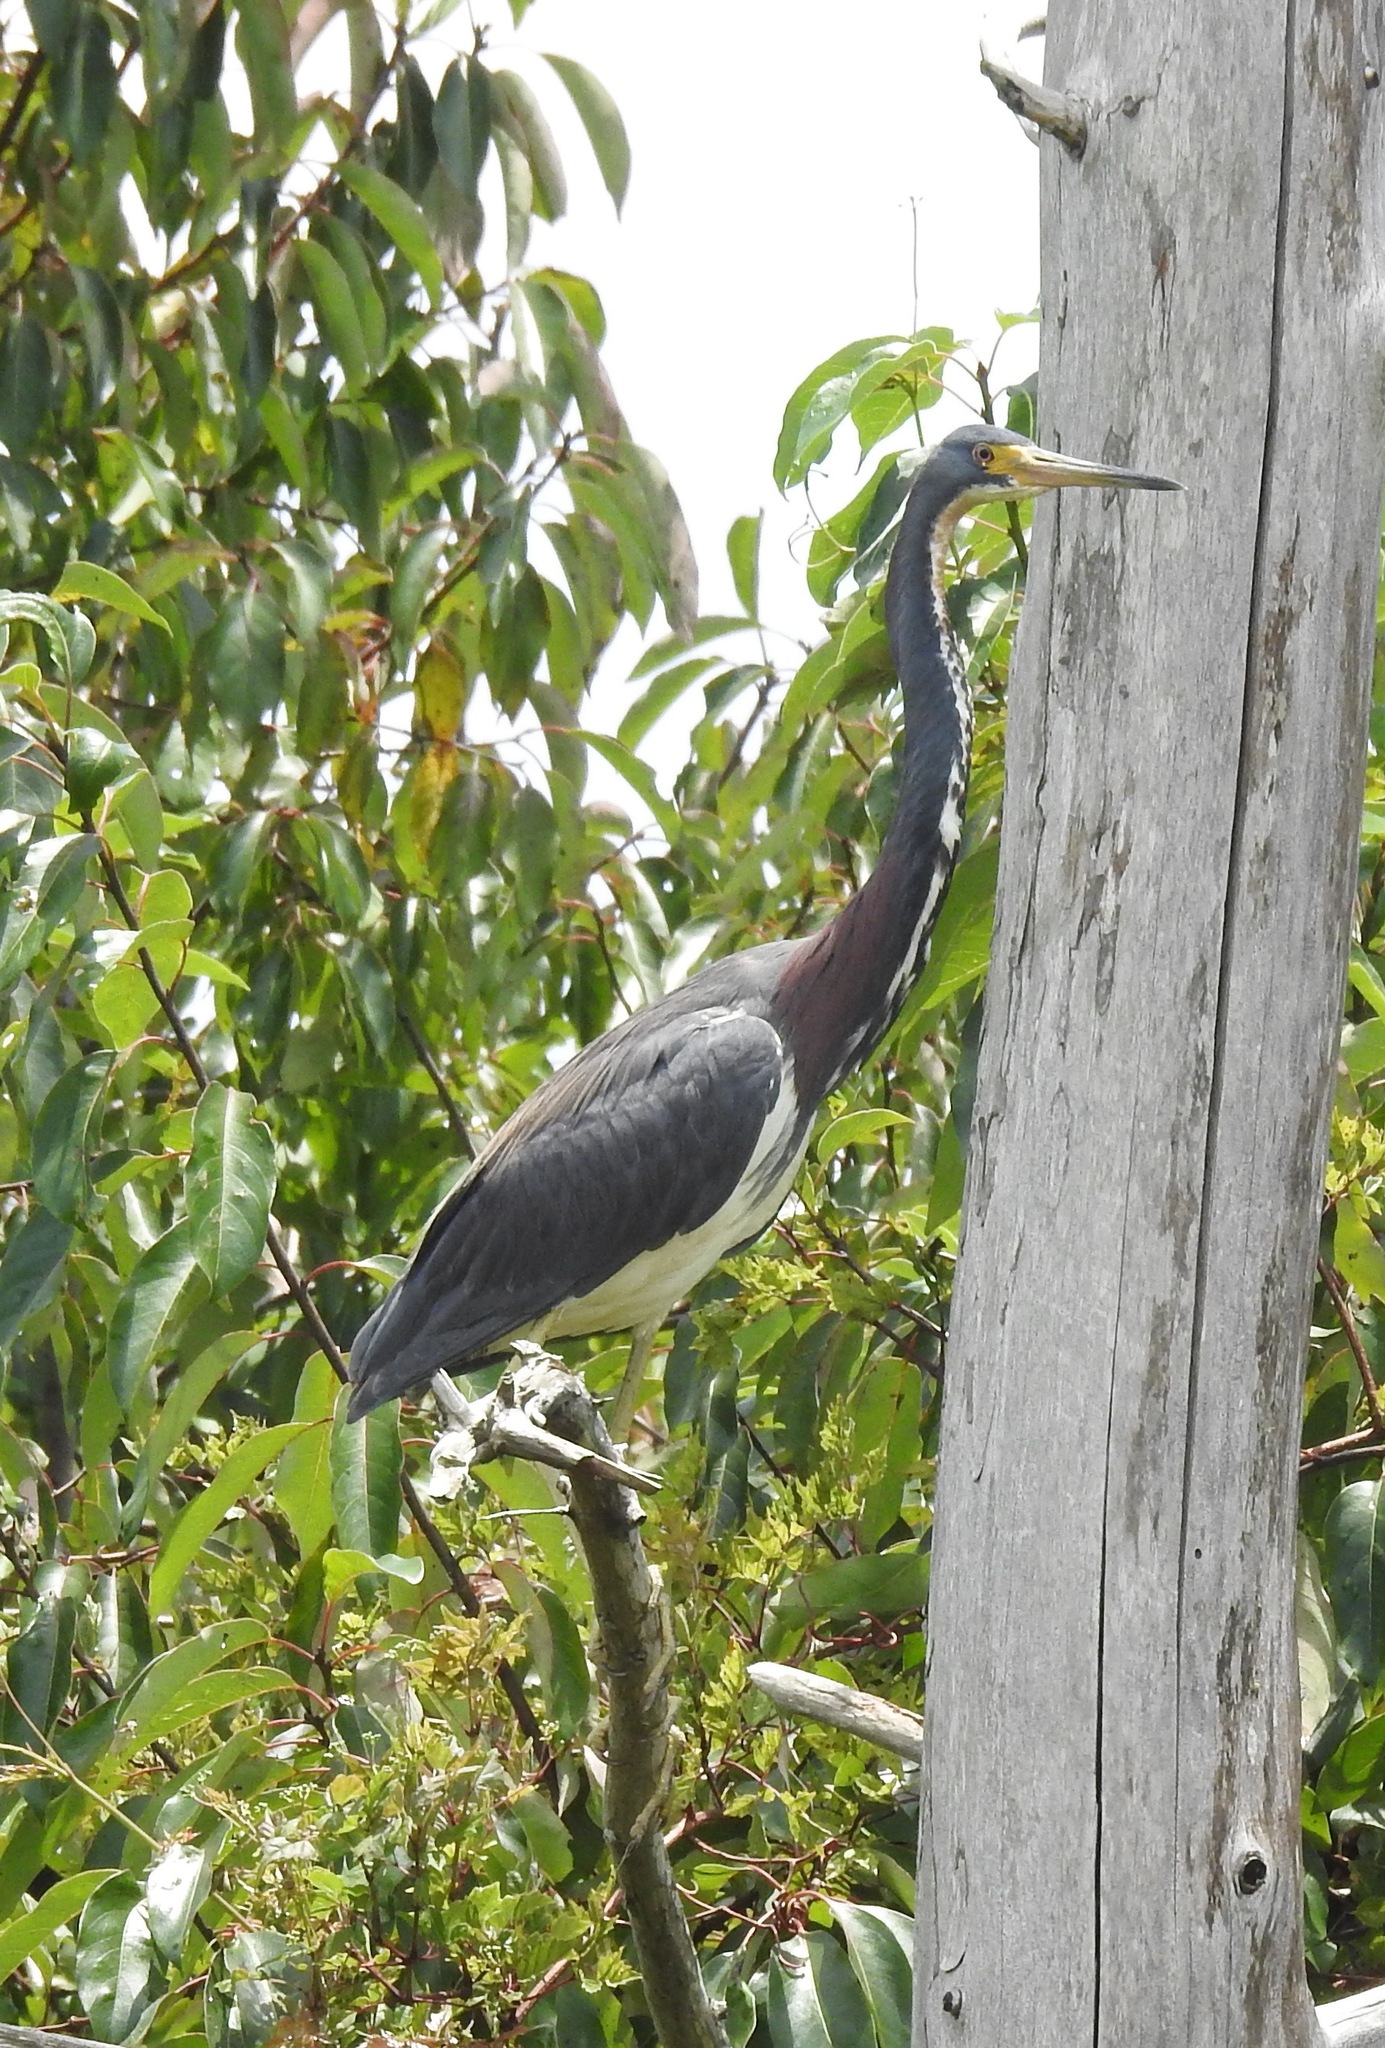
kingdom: Animalia
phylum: Chordata
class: Aves
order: Pelecaniformes
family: Ardeidae
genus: Egretta
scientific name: Egretta tricolor
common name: Tricolored heron
